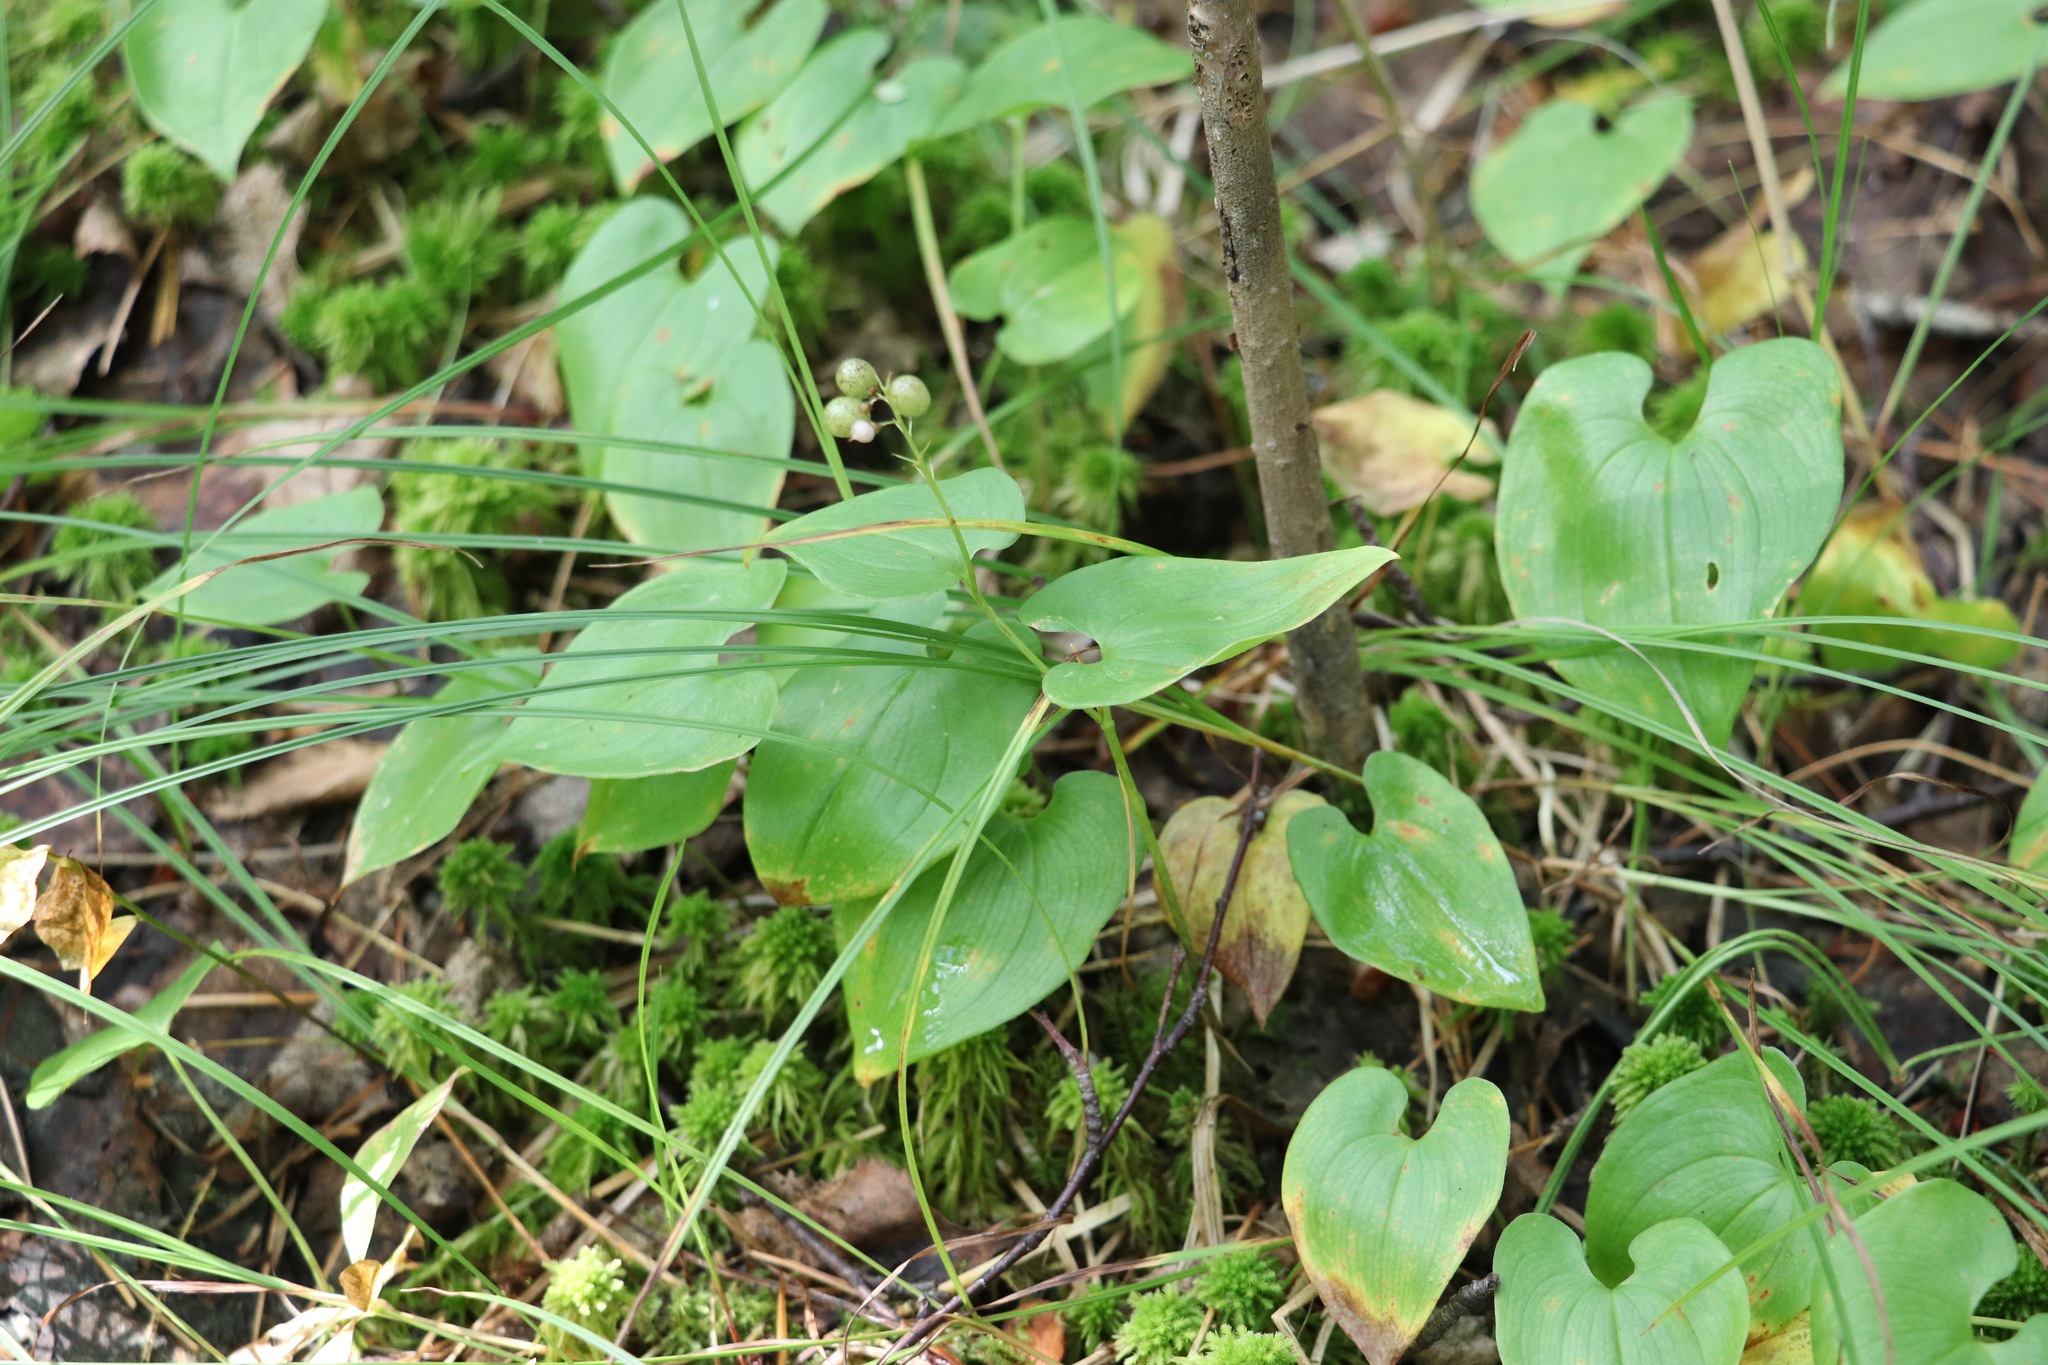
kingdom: Plantae
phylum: Tracheophyta
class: Liliopsida
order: Asparagales
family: Asparagaceae
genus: Maianthemum
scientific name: Maianthemum bifolium
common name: May lily
